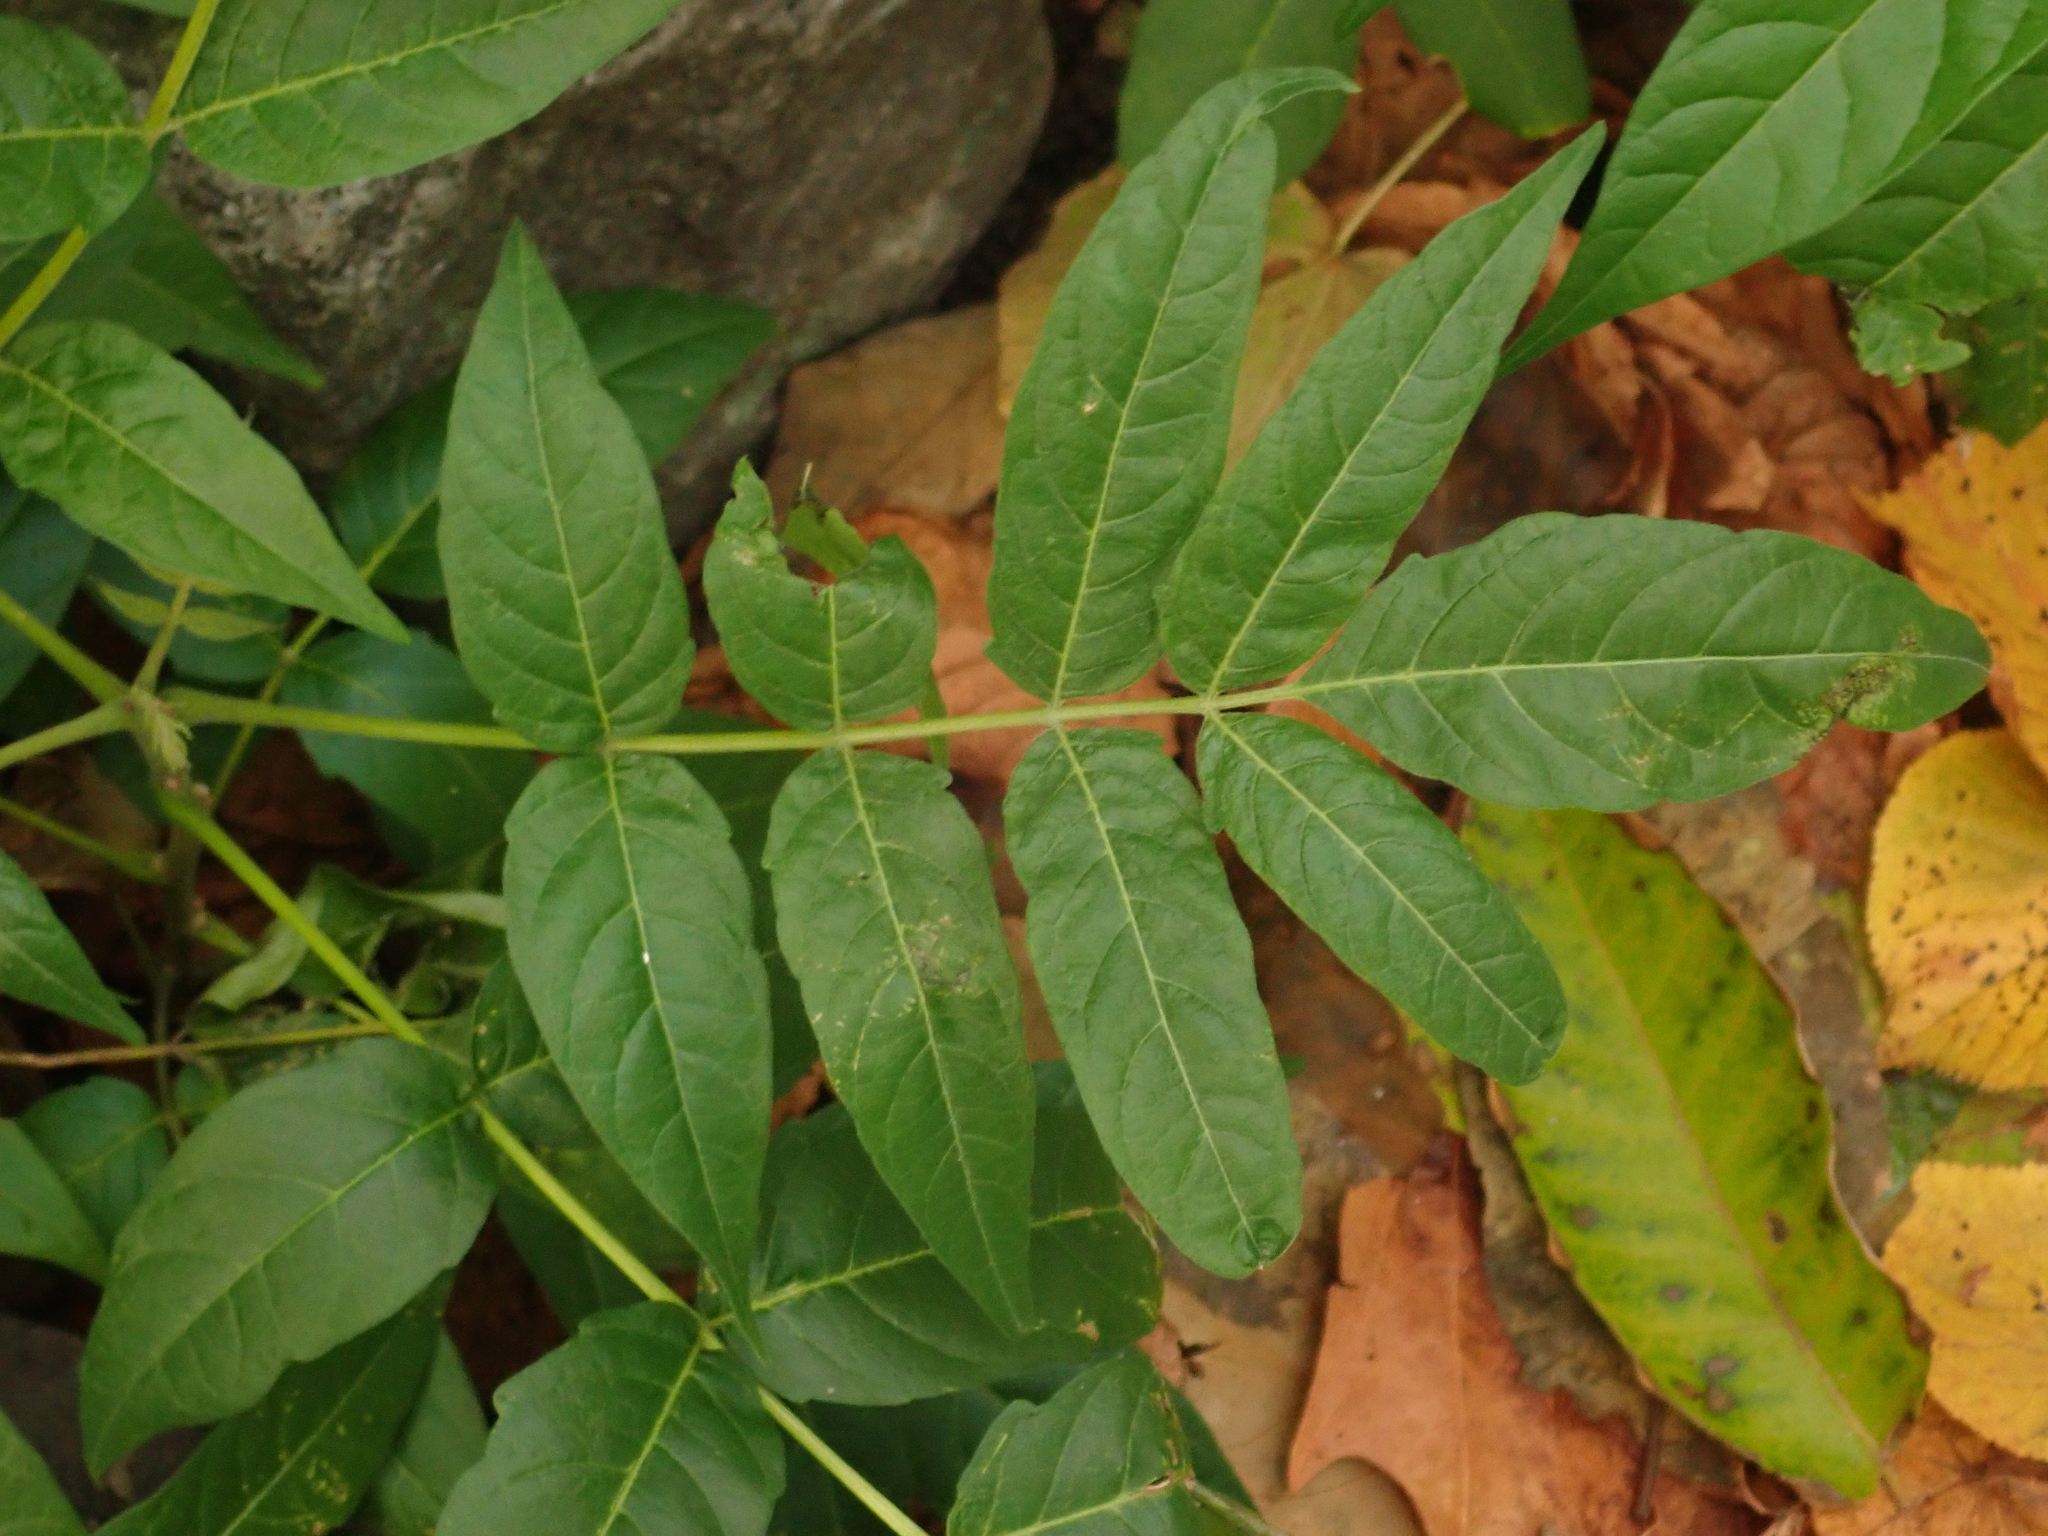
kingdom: Plantae
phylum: Tracheophyta
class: Magnoliopsida
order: Sapindales
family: Simaroubaceae
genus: Ailanthus
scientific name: Ailanthus altissima
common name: Tree-of-heaven
